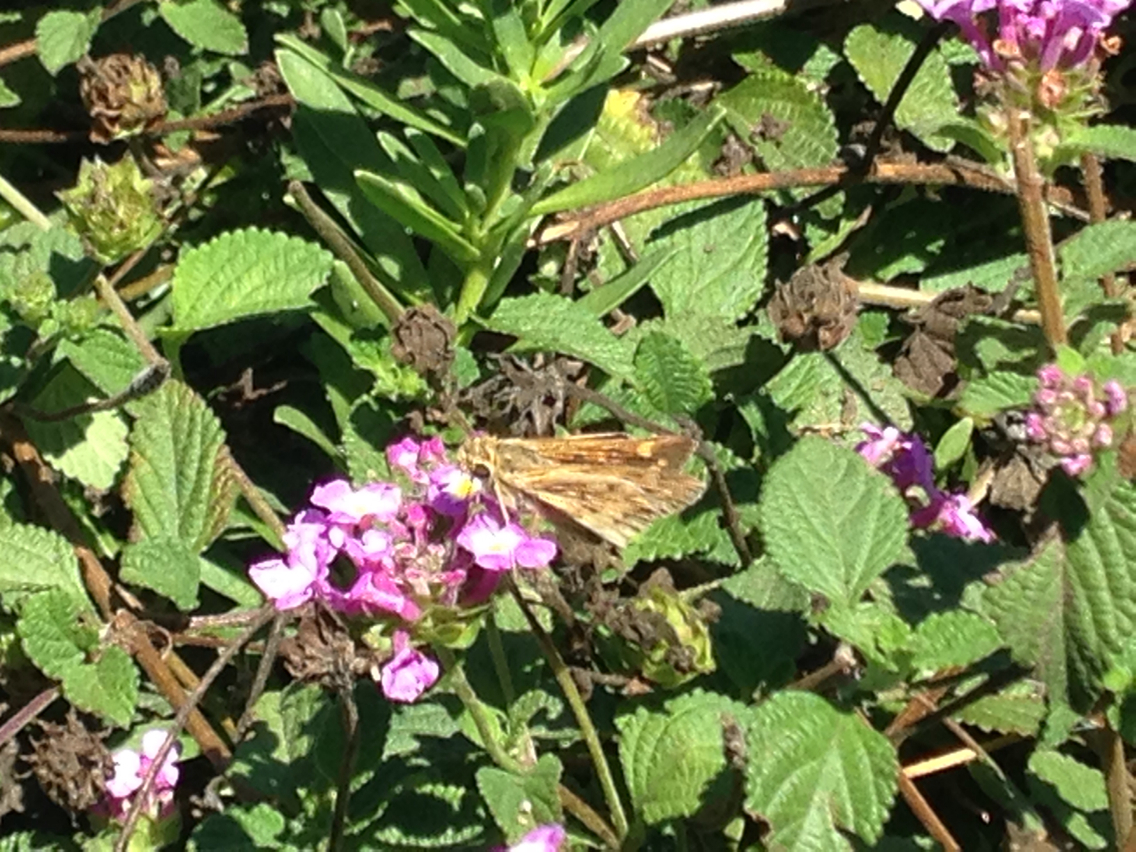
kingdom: Animalia
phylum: Arthropoda
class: Insecta
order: Lepidoptera
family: Hesperiidae
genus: Hylephila
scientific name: Hylephila phyleus
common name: Fiery skipper
